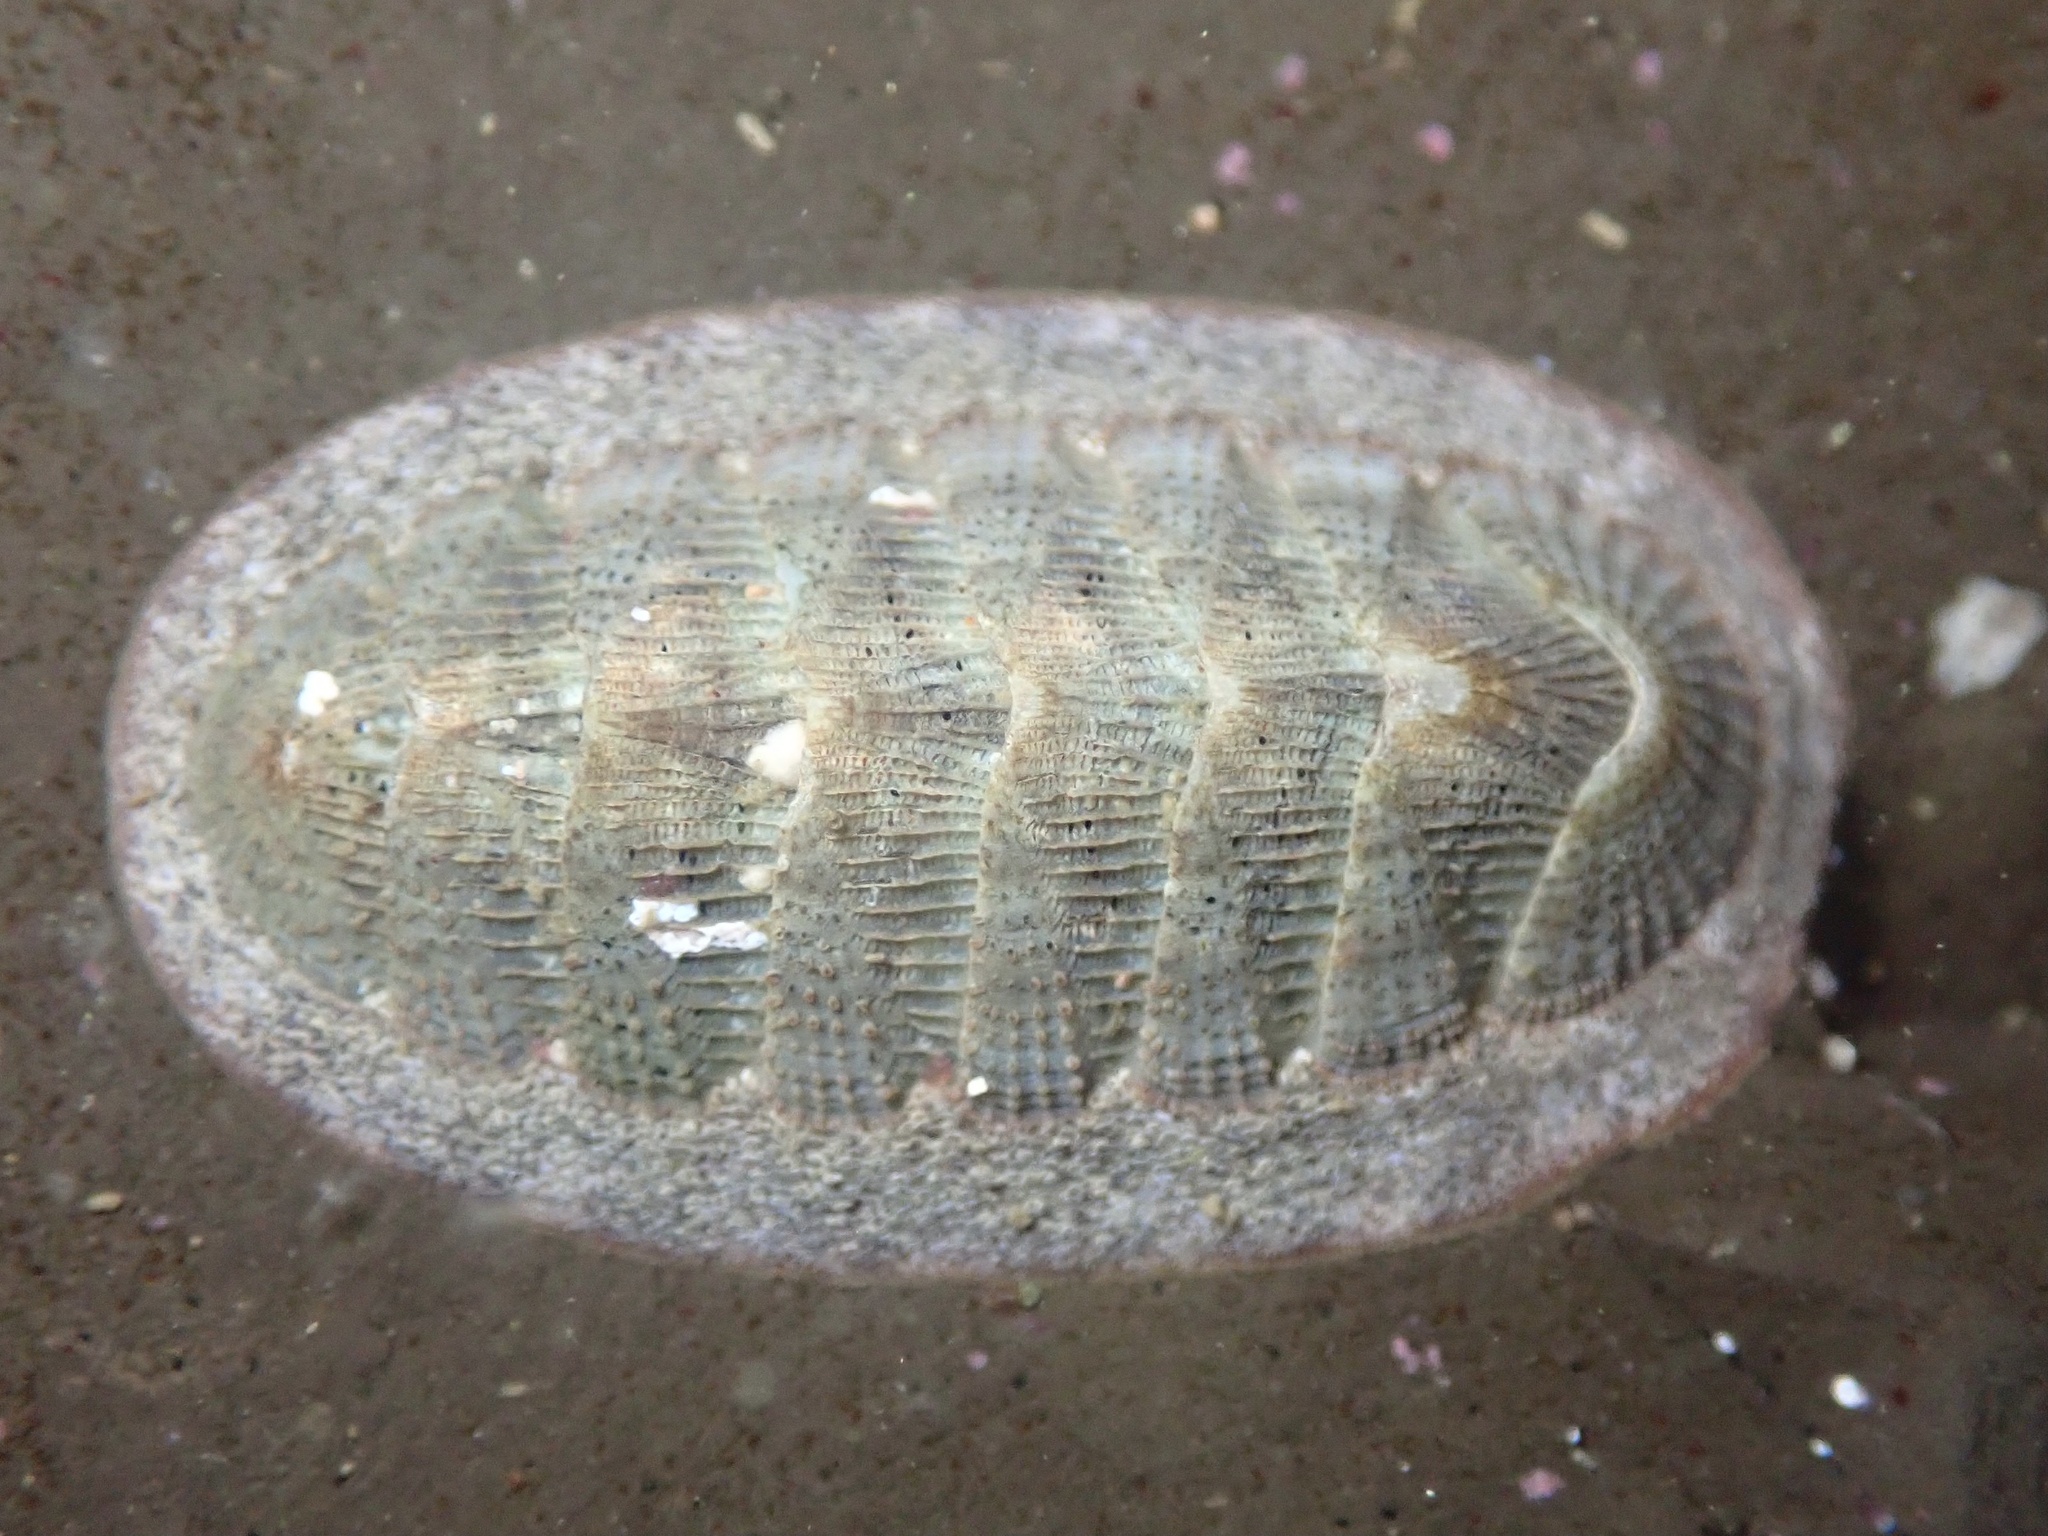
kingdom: Animalia
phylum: Mollusca
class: Polyplacophora
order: Chitonida
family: Ischnochitonidae
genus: Lepidozona
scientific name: Lepidozona cooperi
